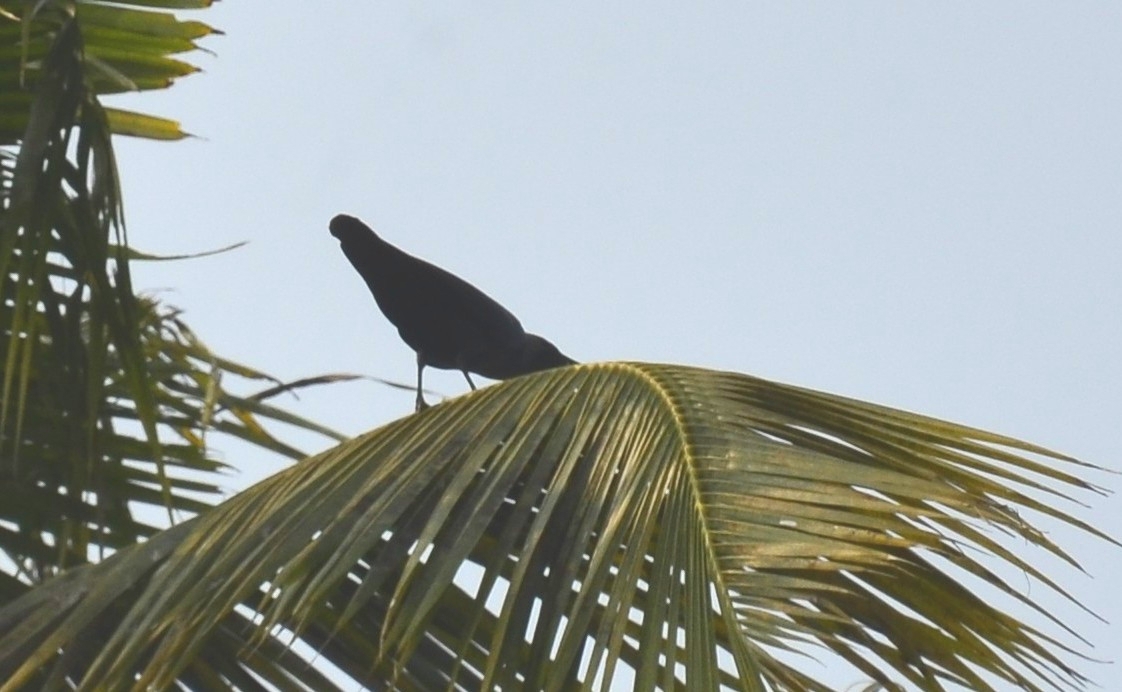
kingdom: Animalia
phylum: Chordata
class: Aves
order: Passeriformes
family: Corvidae
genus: Corvus
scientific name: Corvus splendens
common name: House crow
